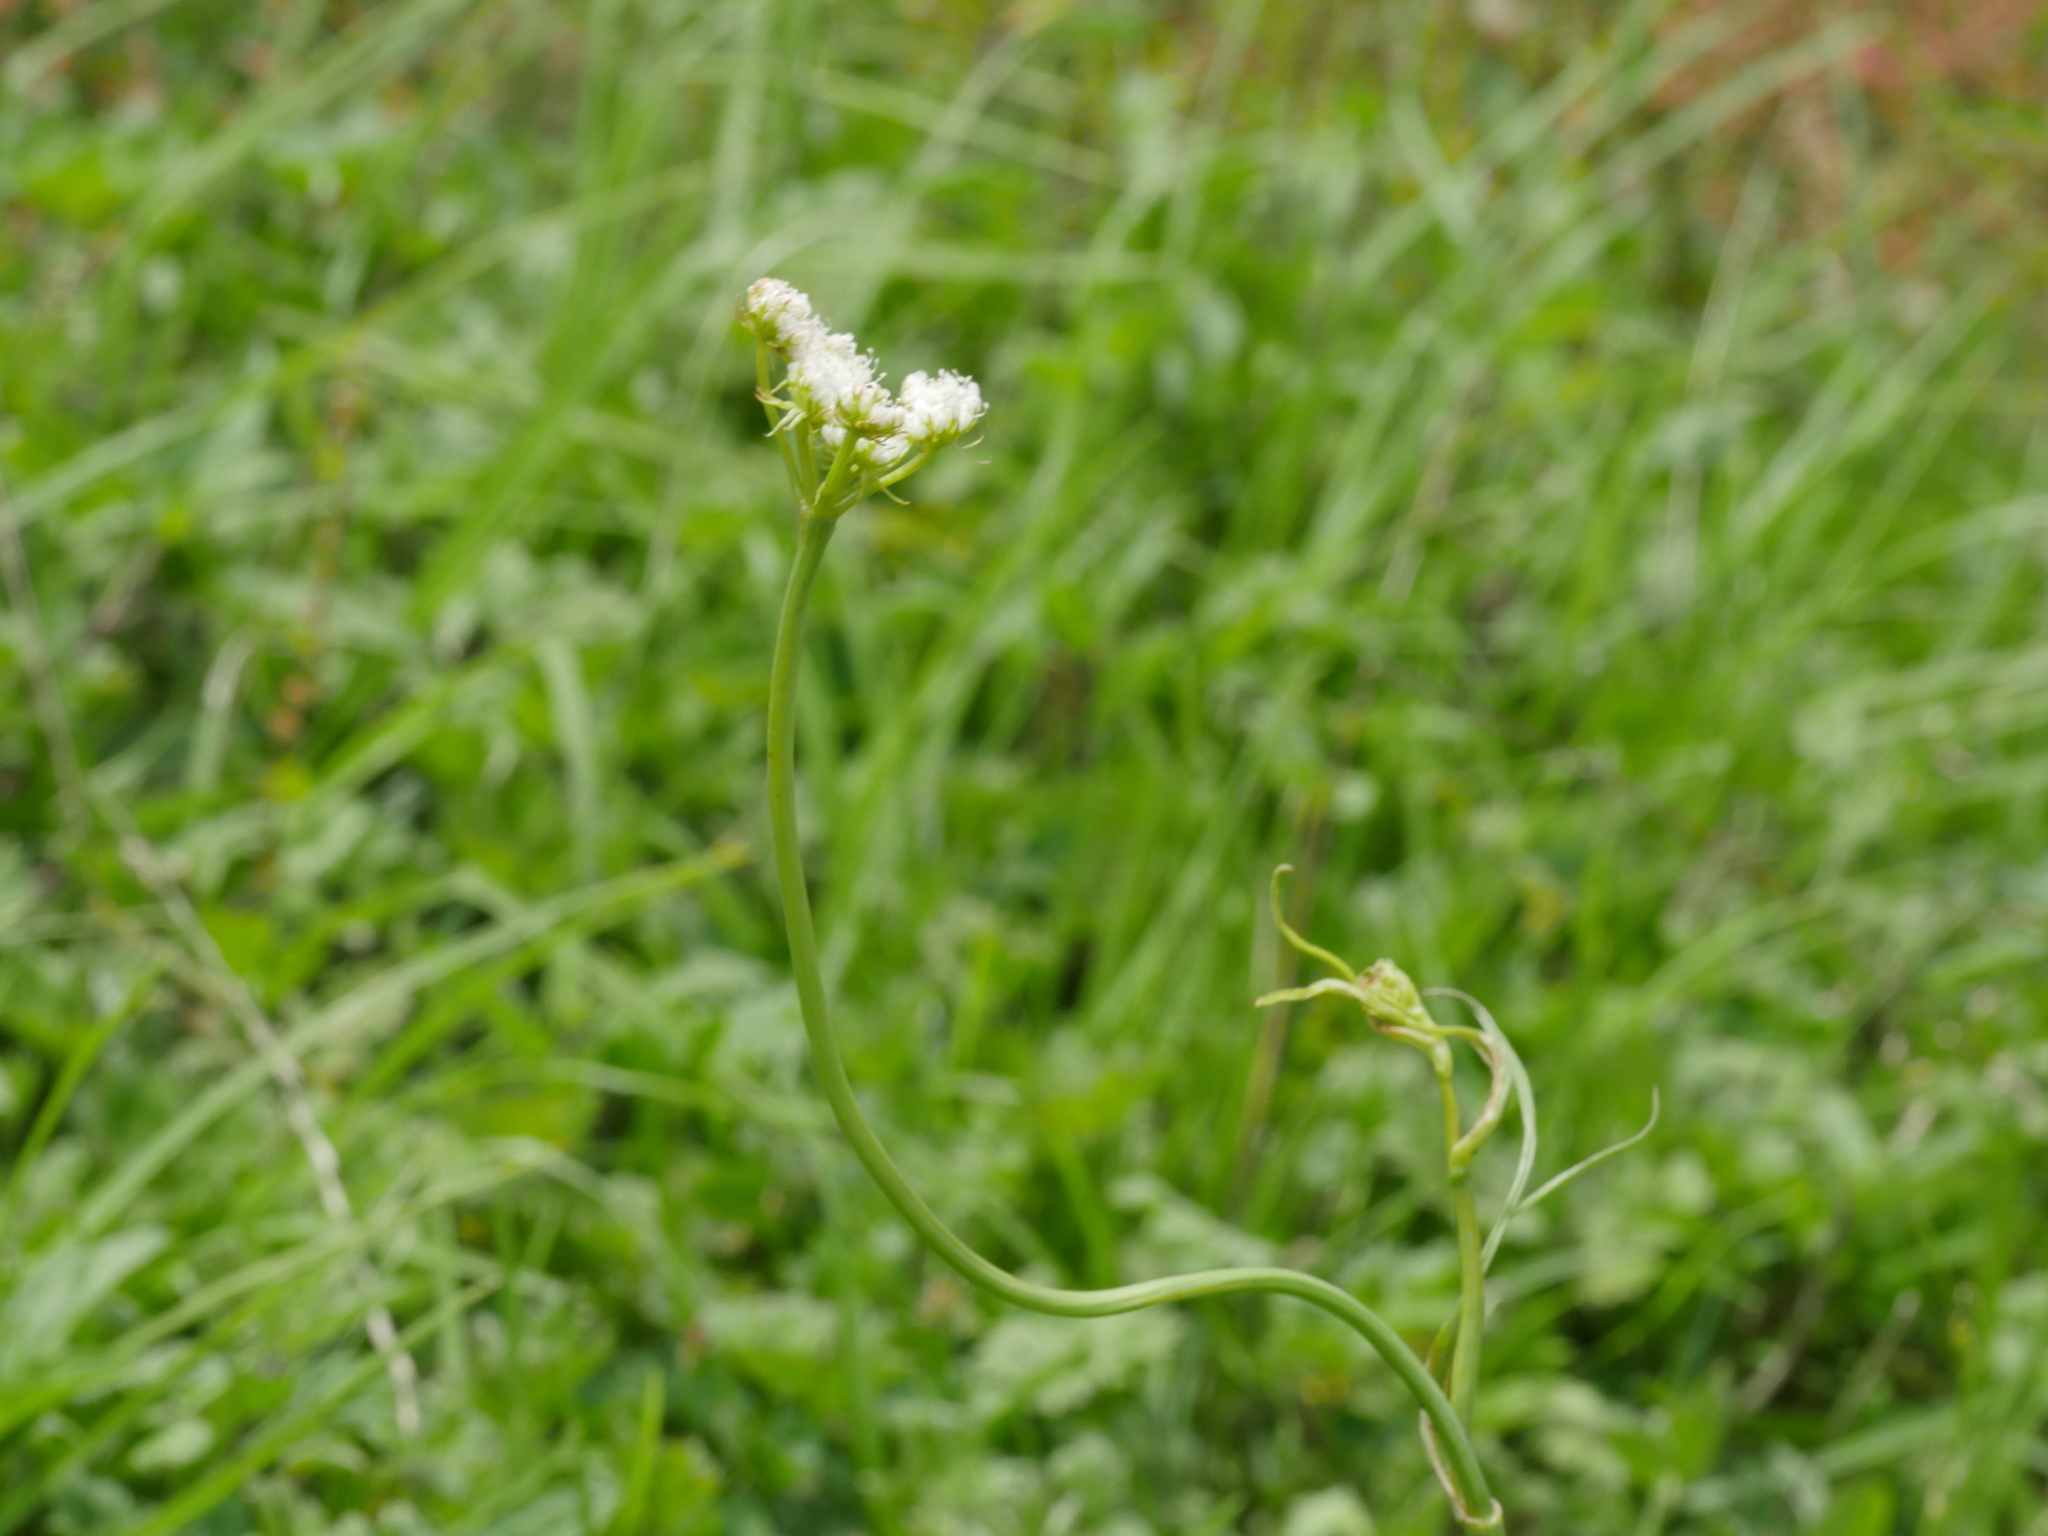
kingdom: Plantae
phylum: Tracheophyta
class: Magnoliopsida
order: Apiales
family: Apiaceae
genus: Oenanthe
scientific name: Oenanthe pimpinelloides
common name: Corky-fruited water-dropwort
